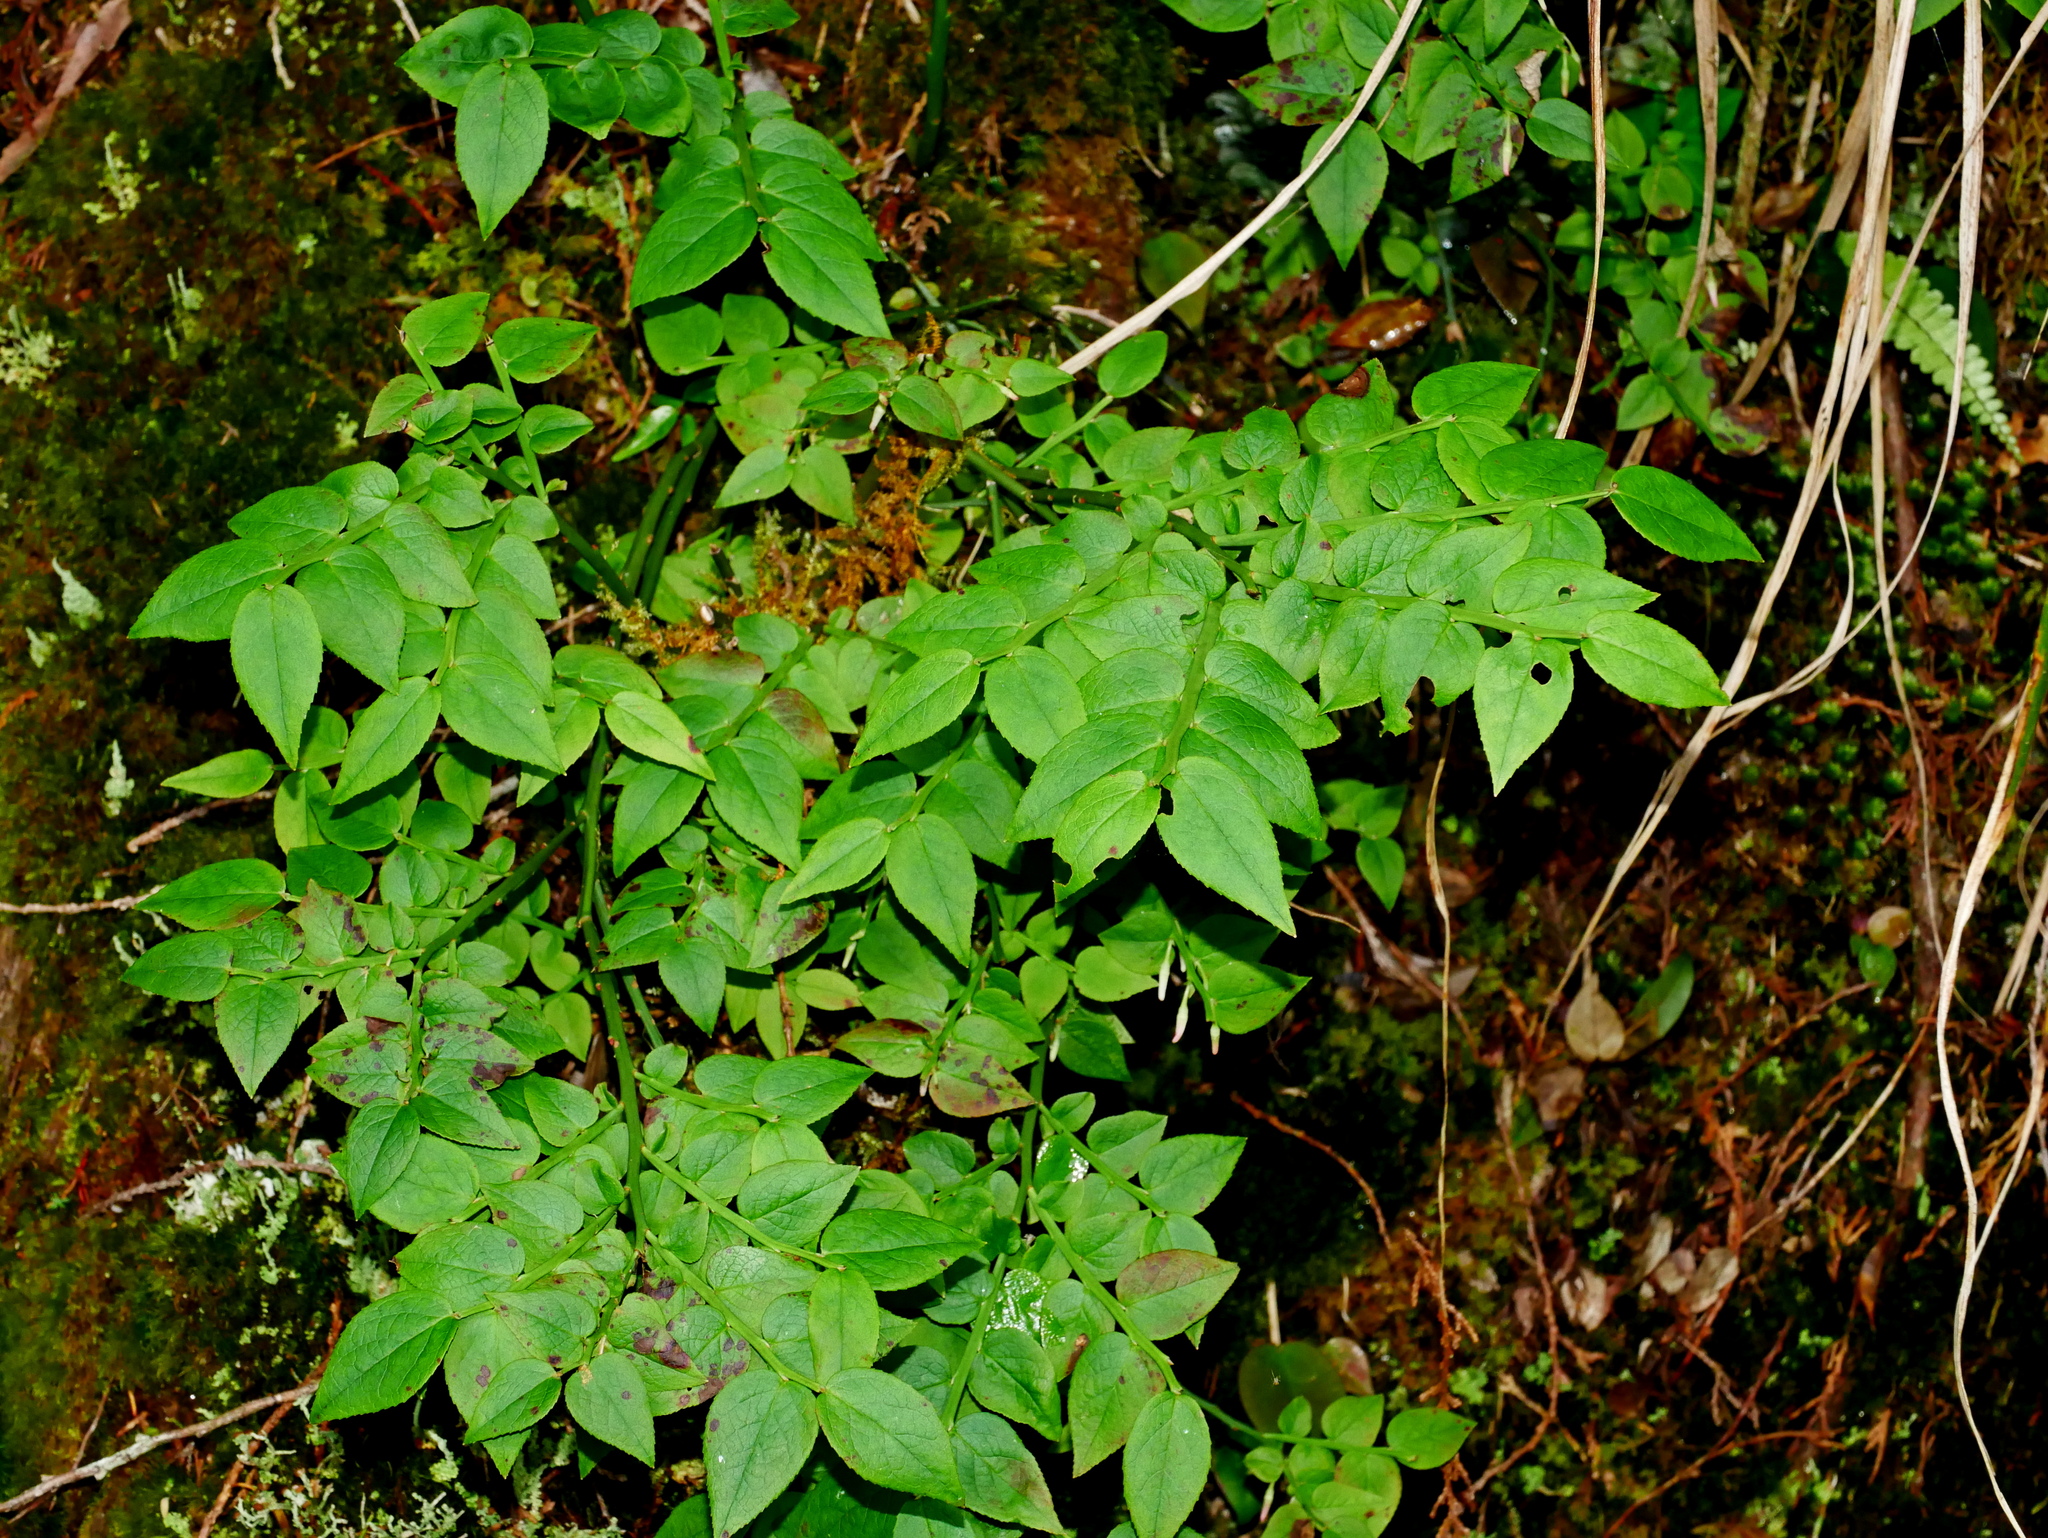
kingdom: Plantae
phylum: Tracheophyta
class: Magnoliopsida
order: Ericales
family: Ericaceae
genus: Vaccinium
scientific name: Vaccinium japonicum
